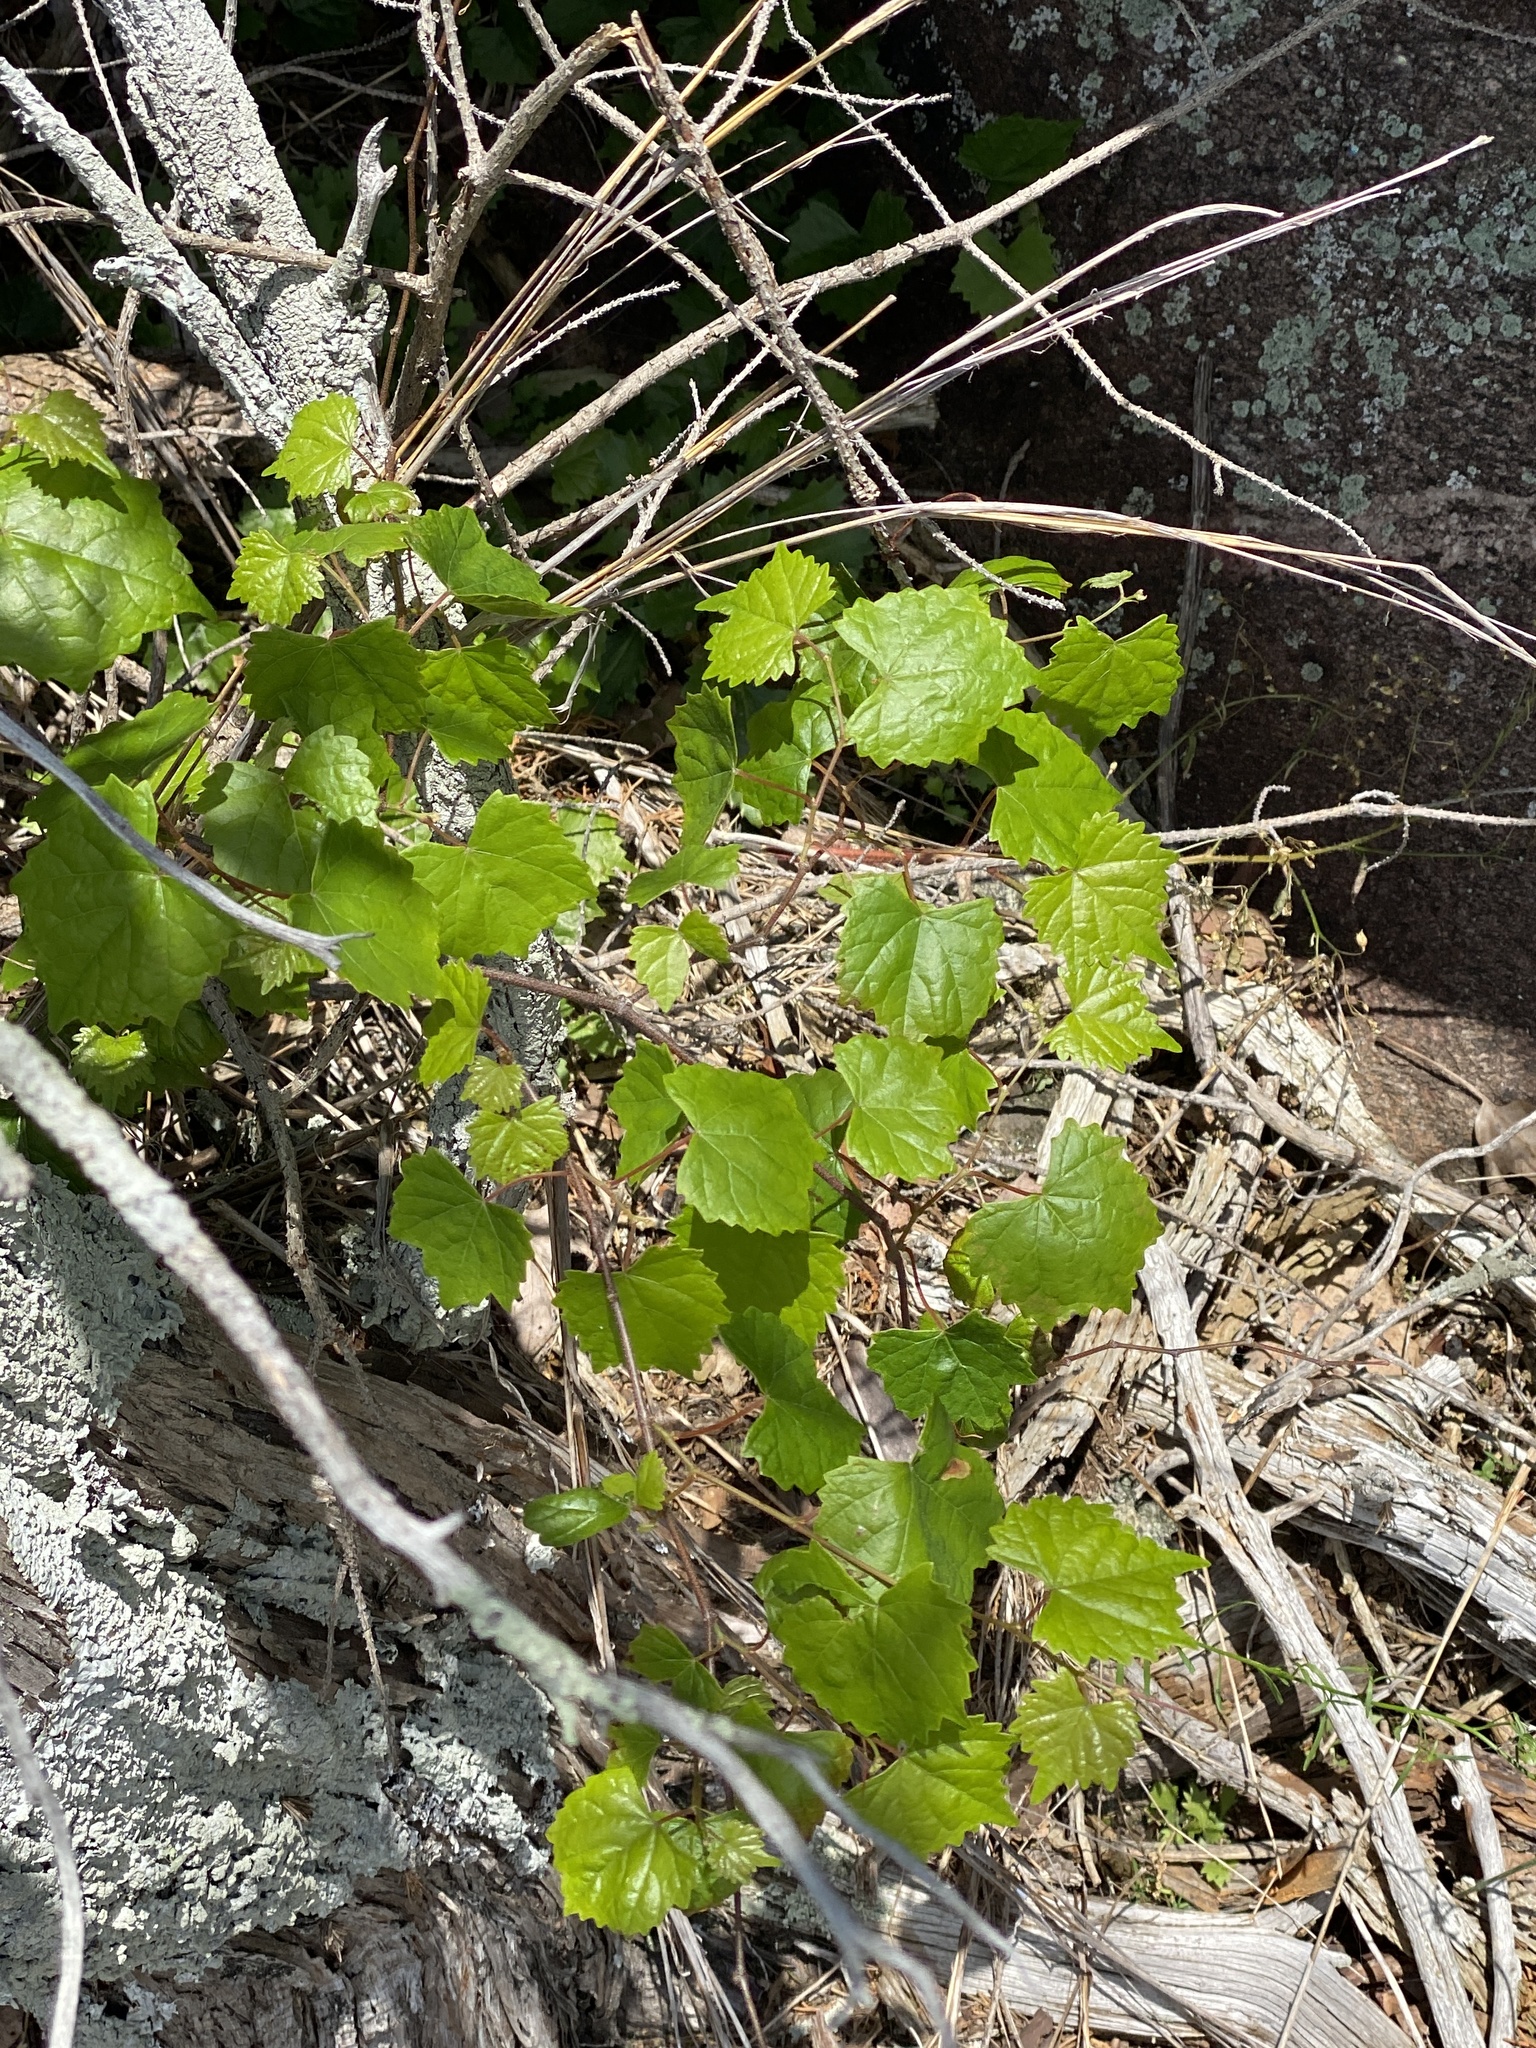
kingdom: Plantae
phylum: Tracheophyta
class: Magnoliopsida
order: Vitales
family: Vitaceae
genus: Vitis
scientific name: Vitis rotundifolia
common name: Muscadine grape
